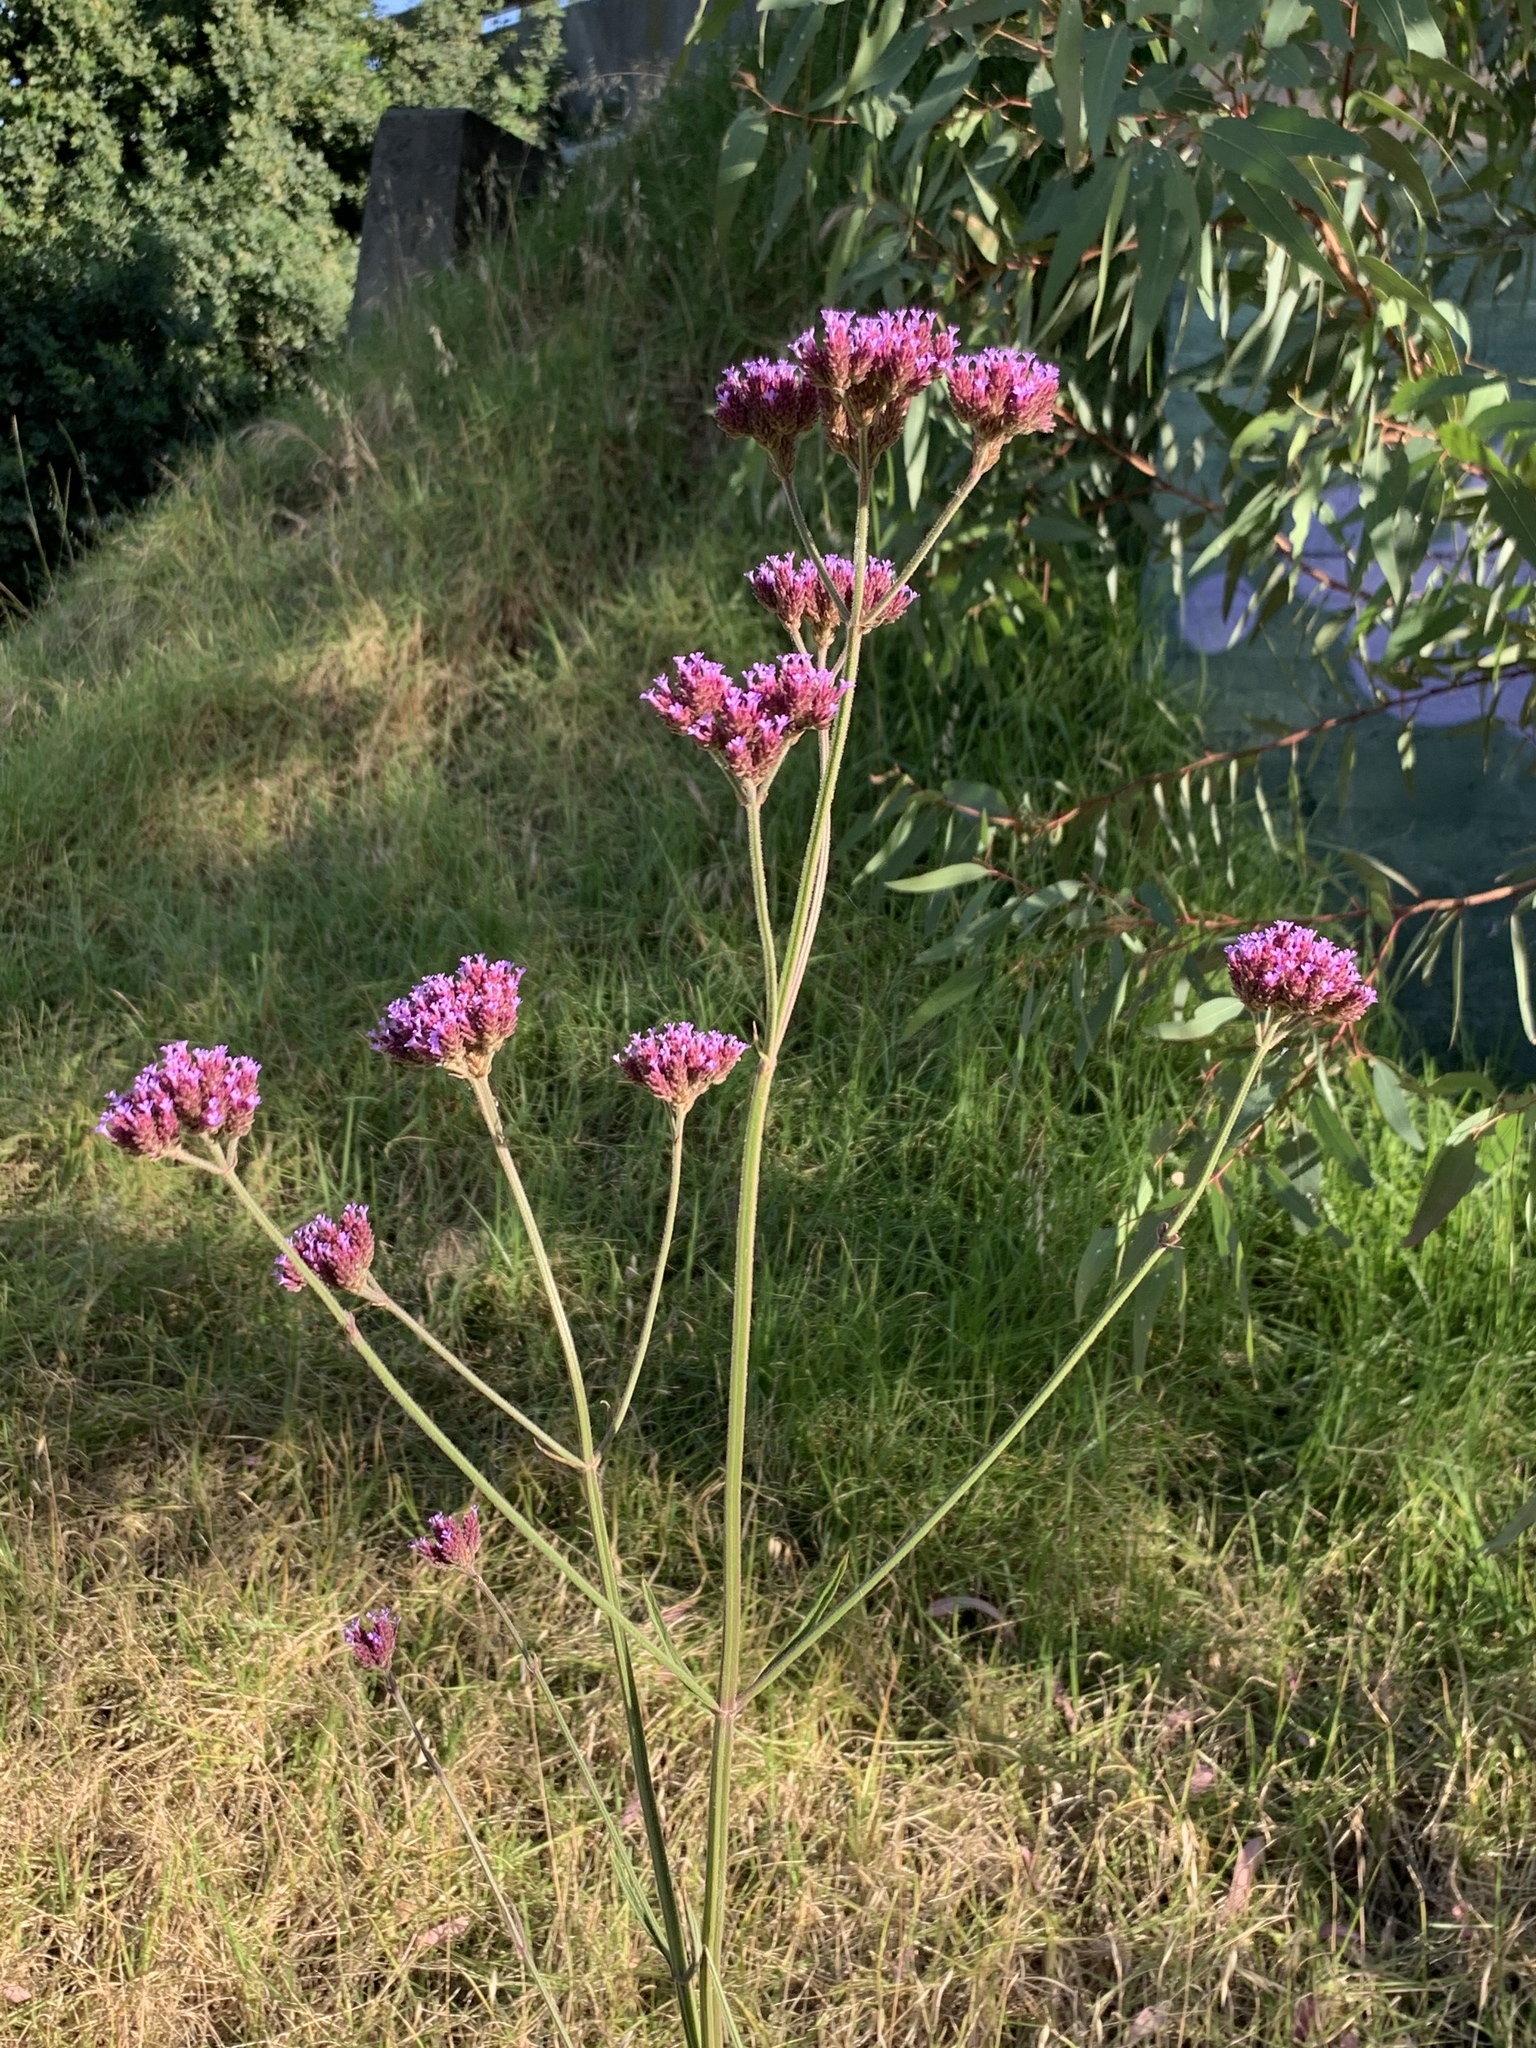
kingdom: Plantae
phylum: Tracheophyta
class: Magnoliopsida
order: Lamiales
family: Verbenaceae
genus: Verbena
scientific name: Verbena bonariensis
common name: Purpletop vervain
